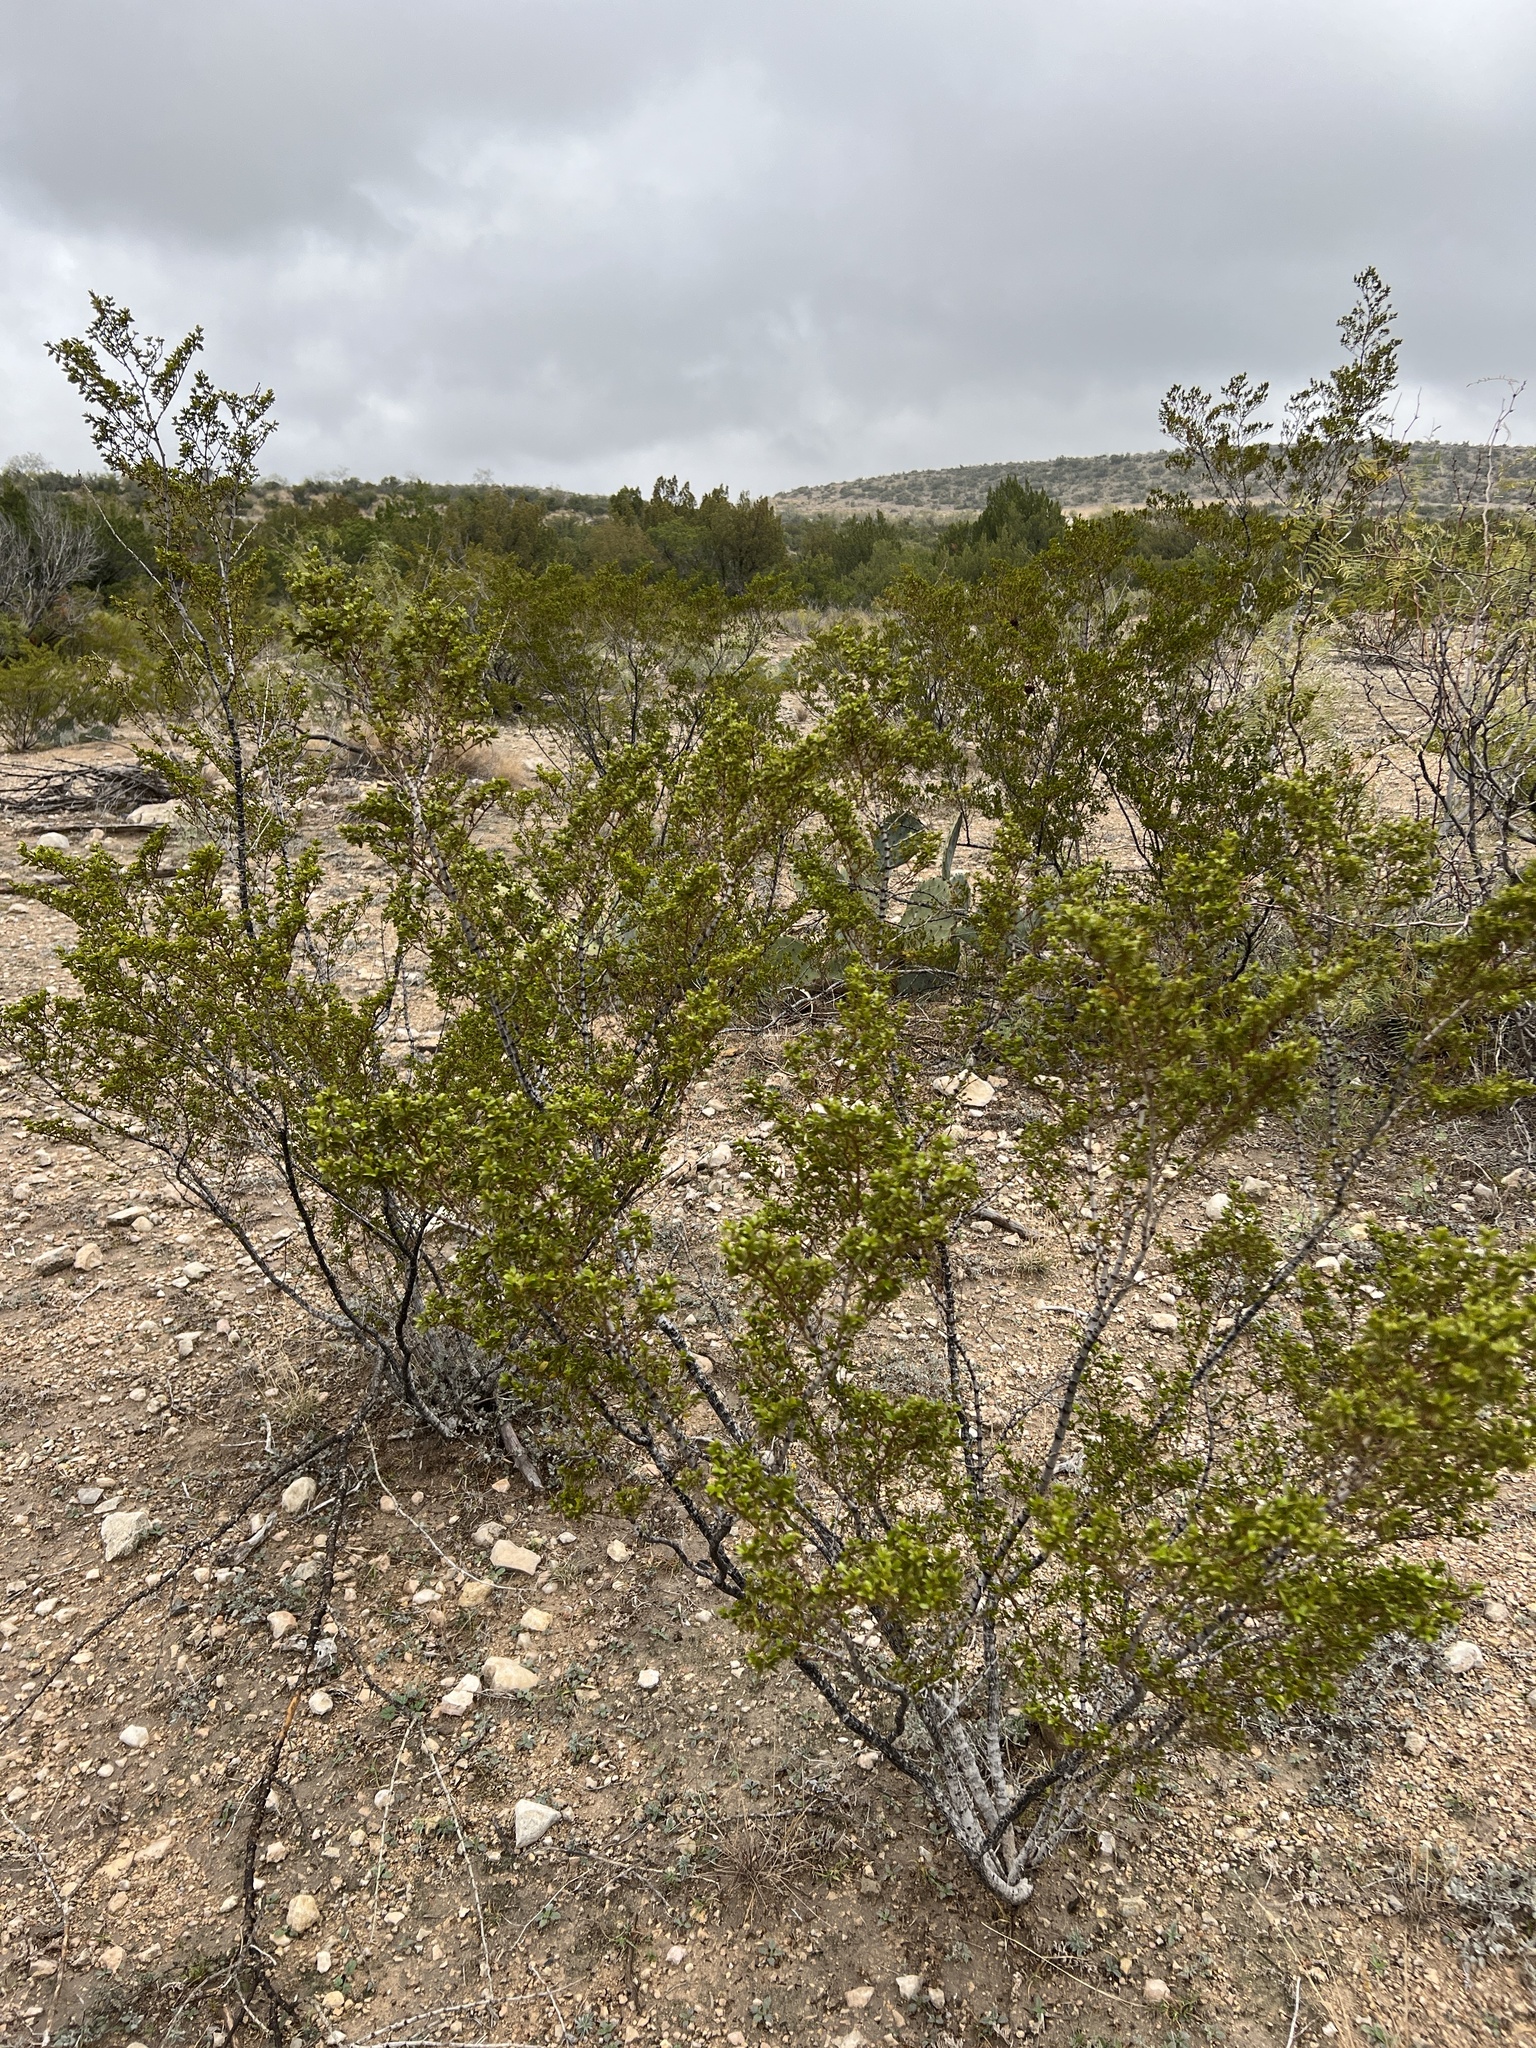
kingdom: Plantae
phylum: Tracheophyta
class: Magnoliopsida
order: Zygophyllales
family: Zygophyllaceae
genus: Larrea
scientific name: Larrea tridentata
